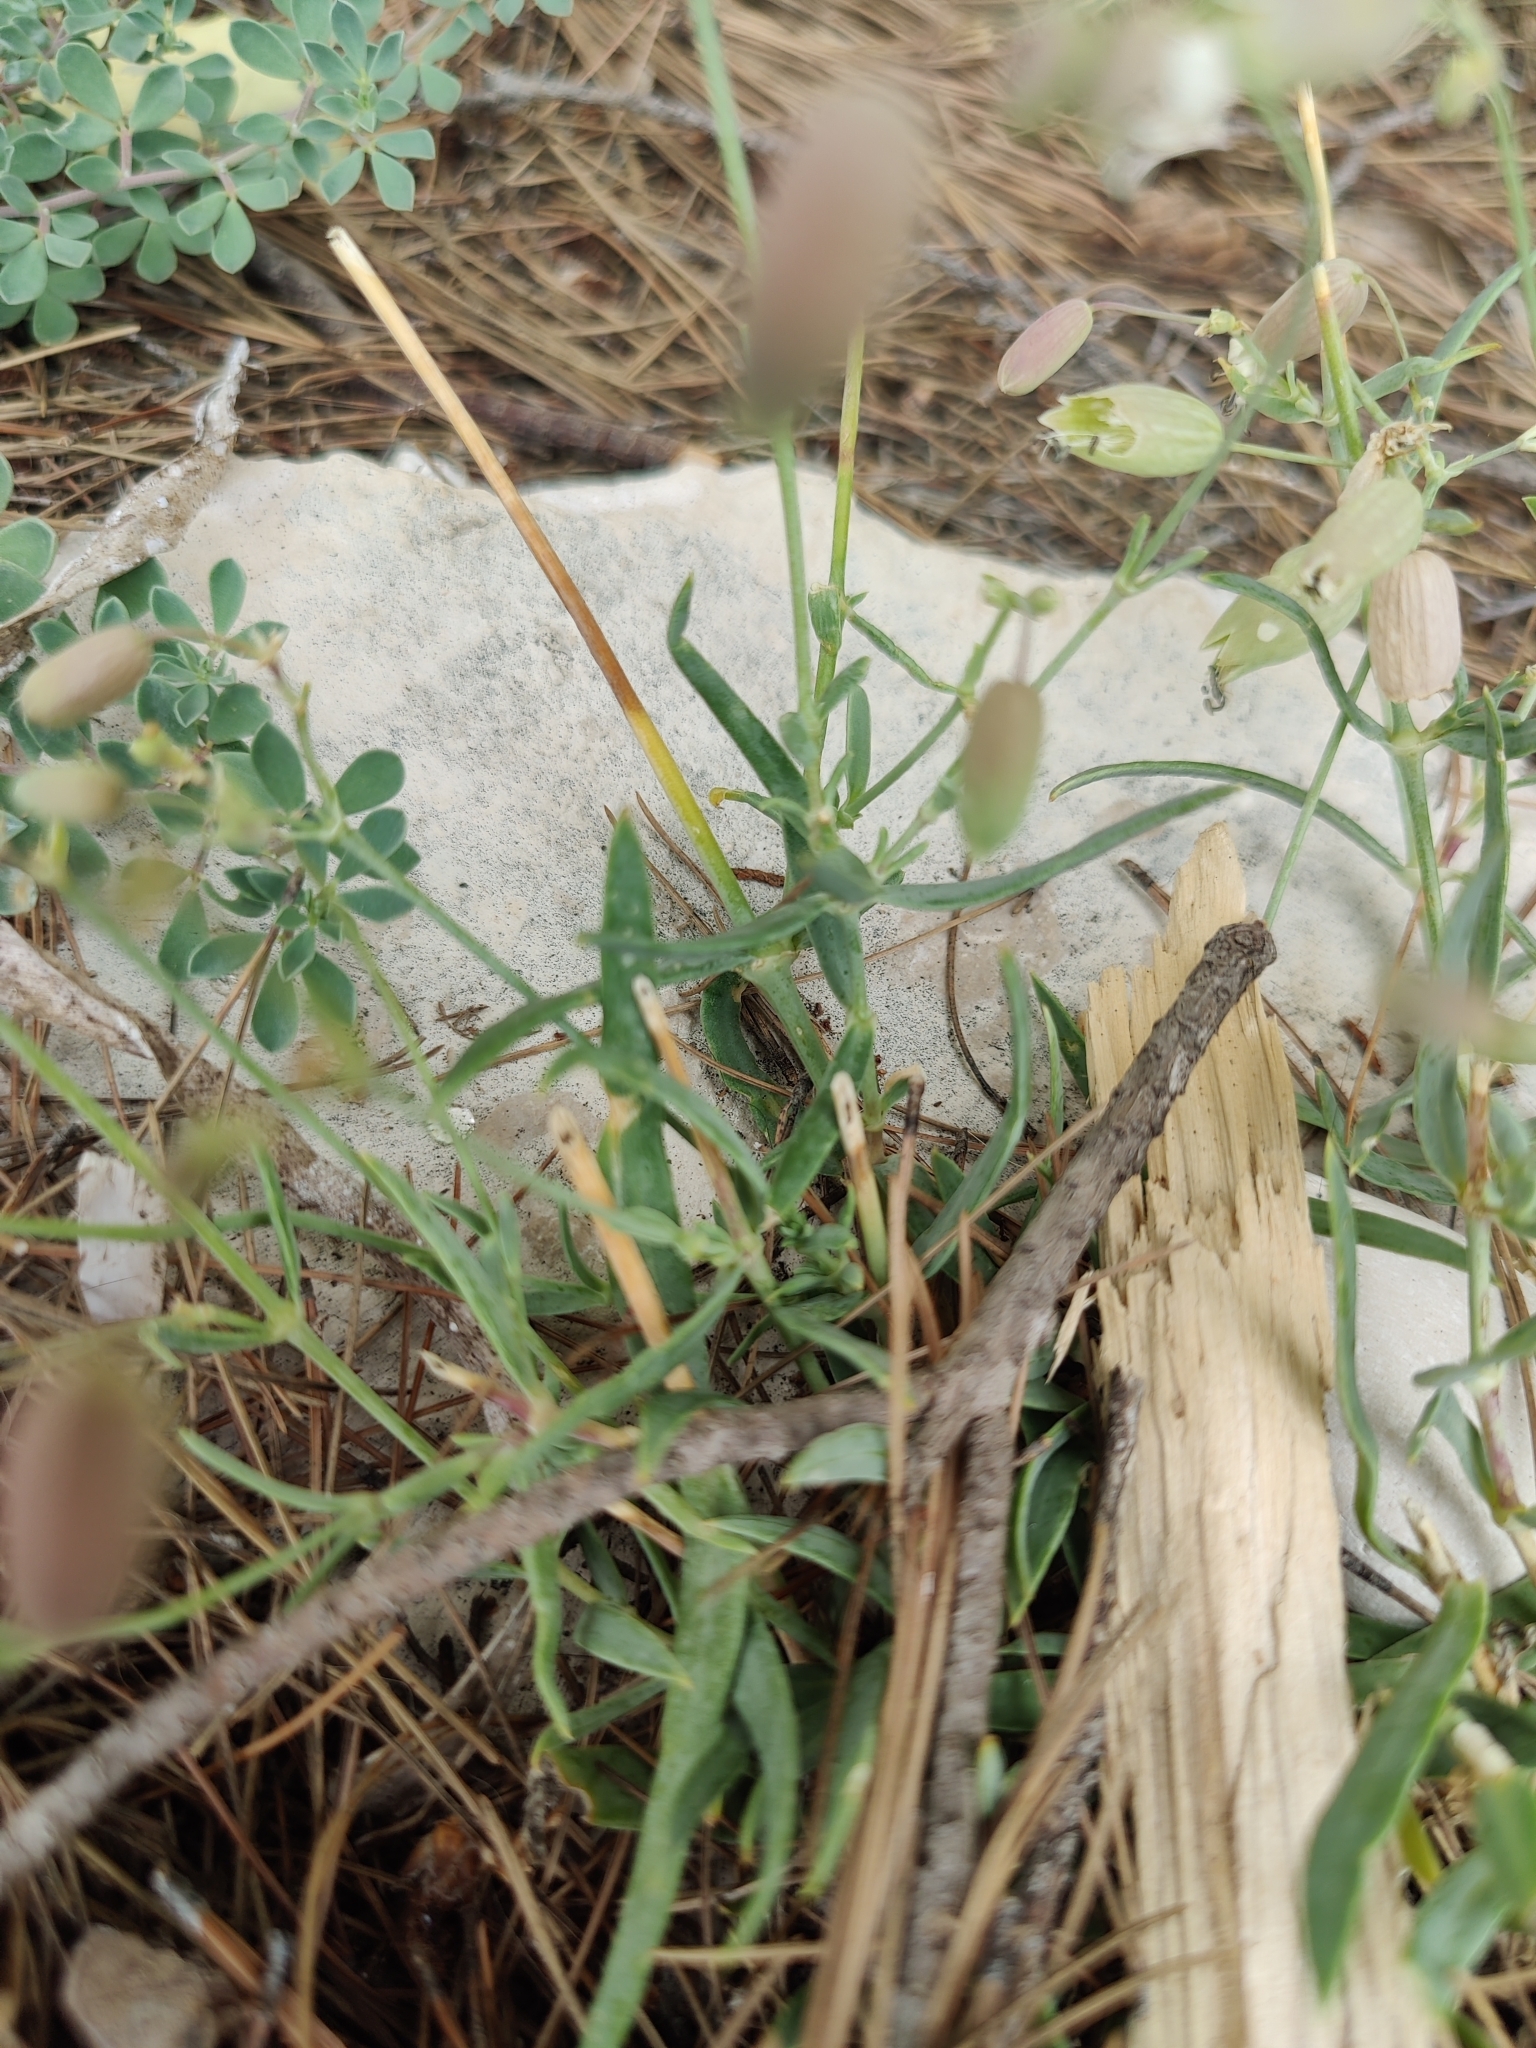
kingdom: Plantae
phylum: Tracheophyta
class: Magnoliopsida
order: Caryophyllales
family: Caryophyllaceae
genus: Silene
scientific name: Silene vulgaris
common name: Bladder campion
